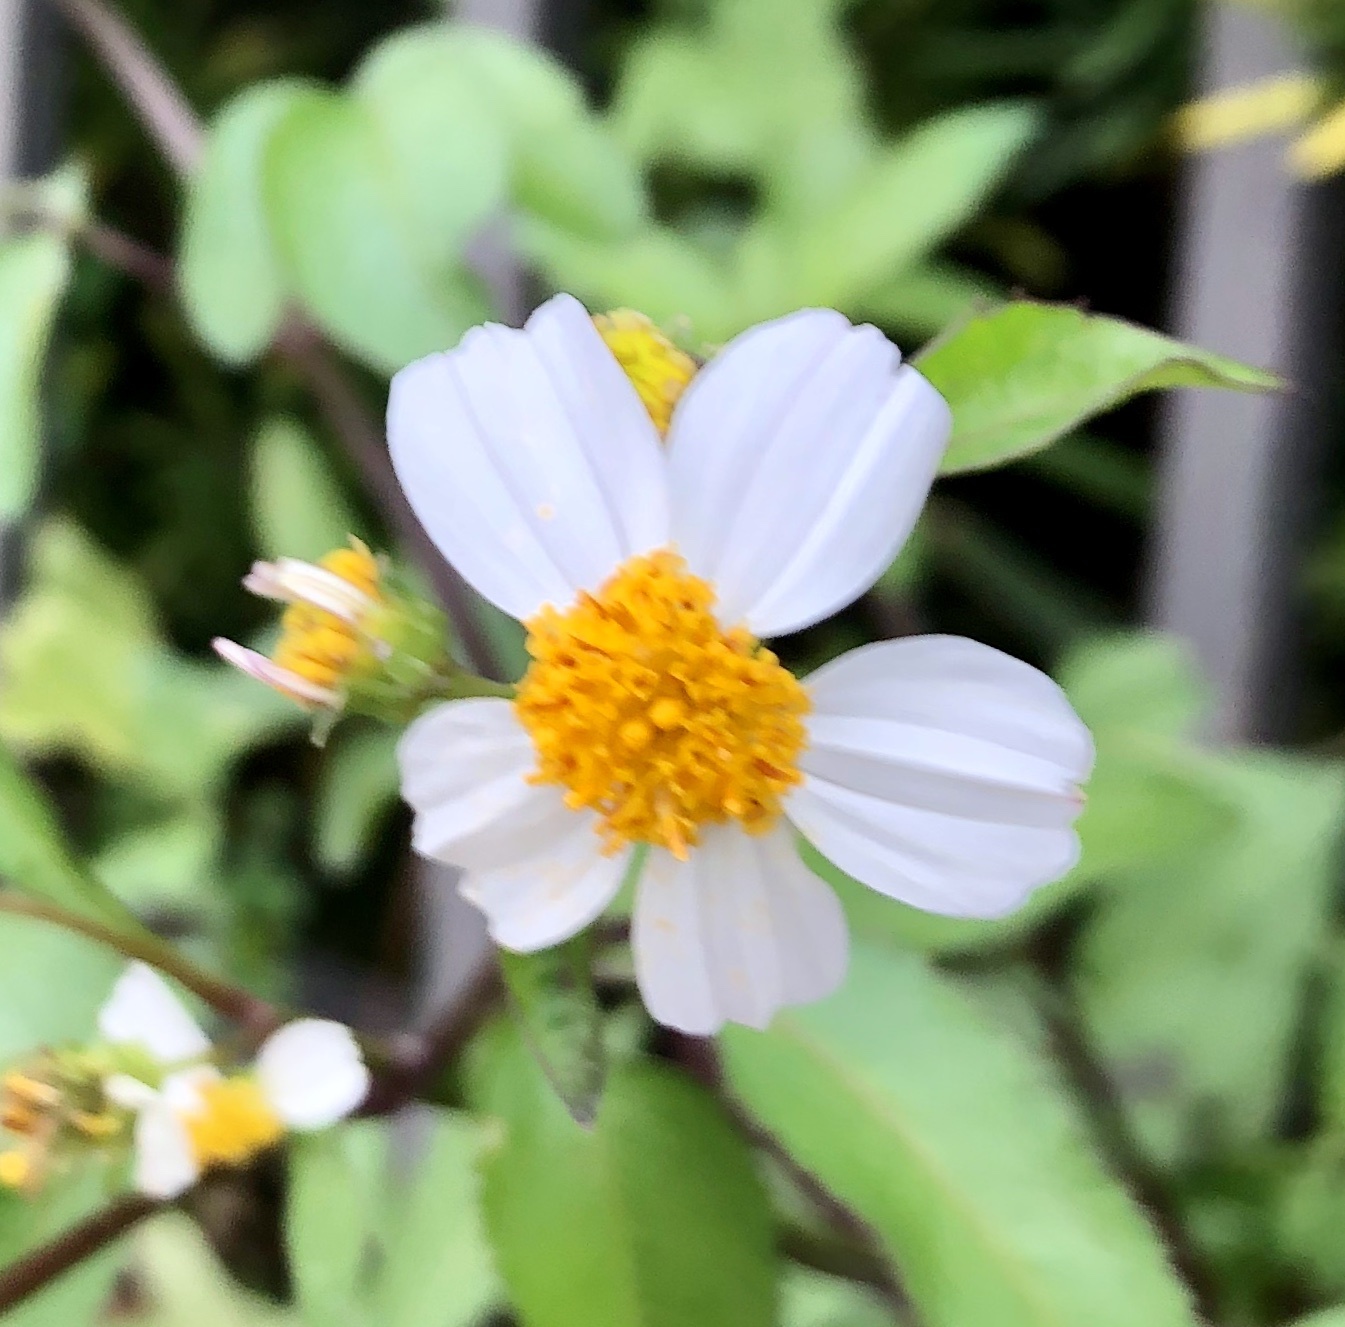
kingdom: Plantae
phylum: Tracheophyta
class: Magnoliopsida
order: Asterales
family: Asteraceae
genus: Bidens
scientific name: Bidens alba
